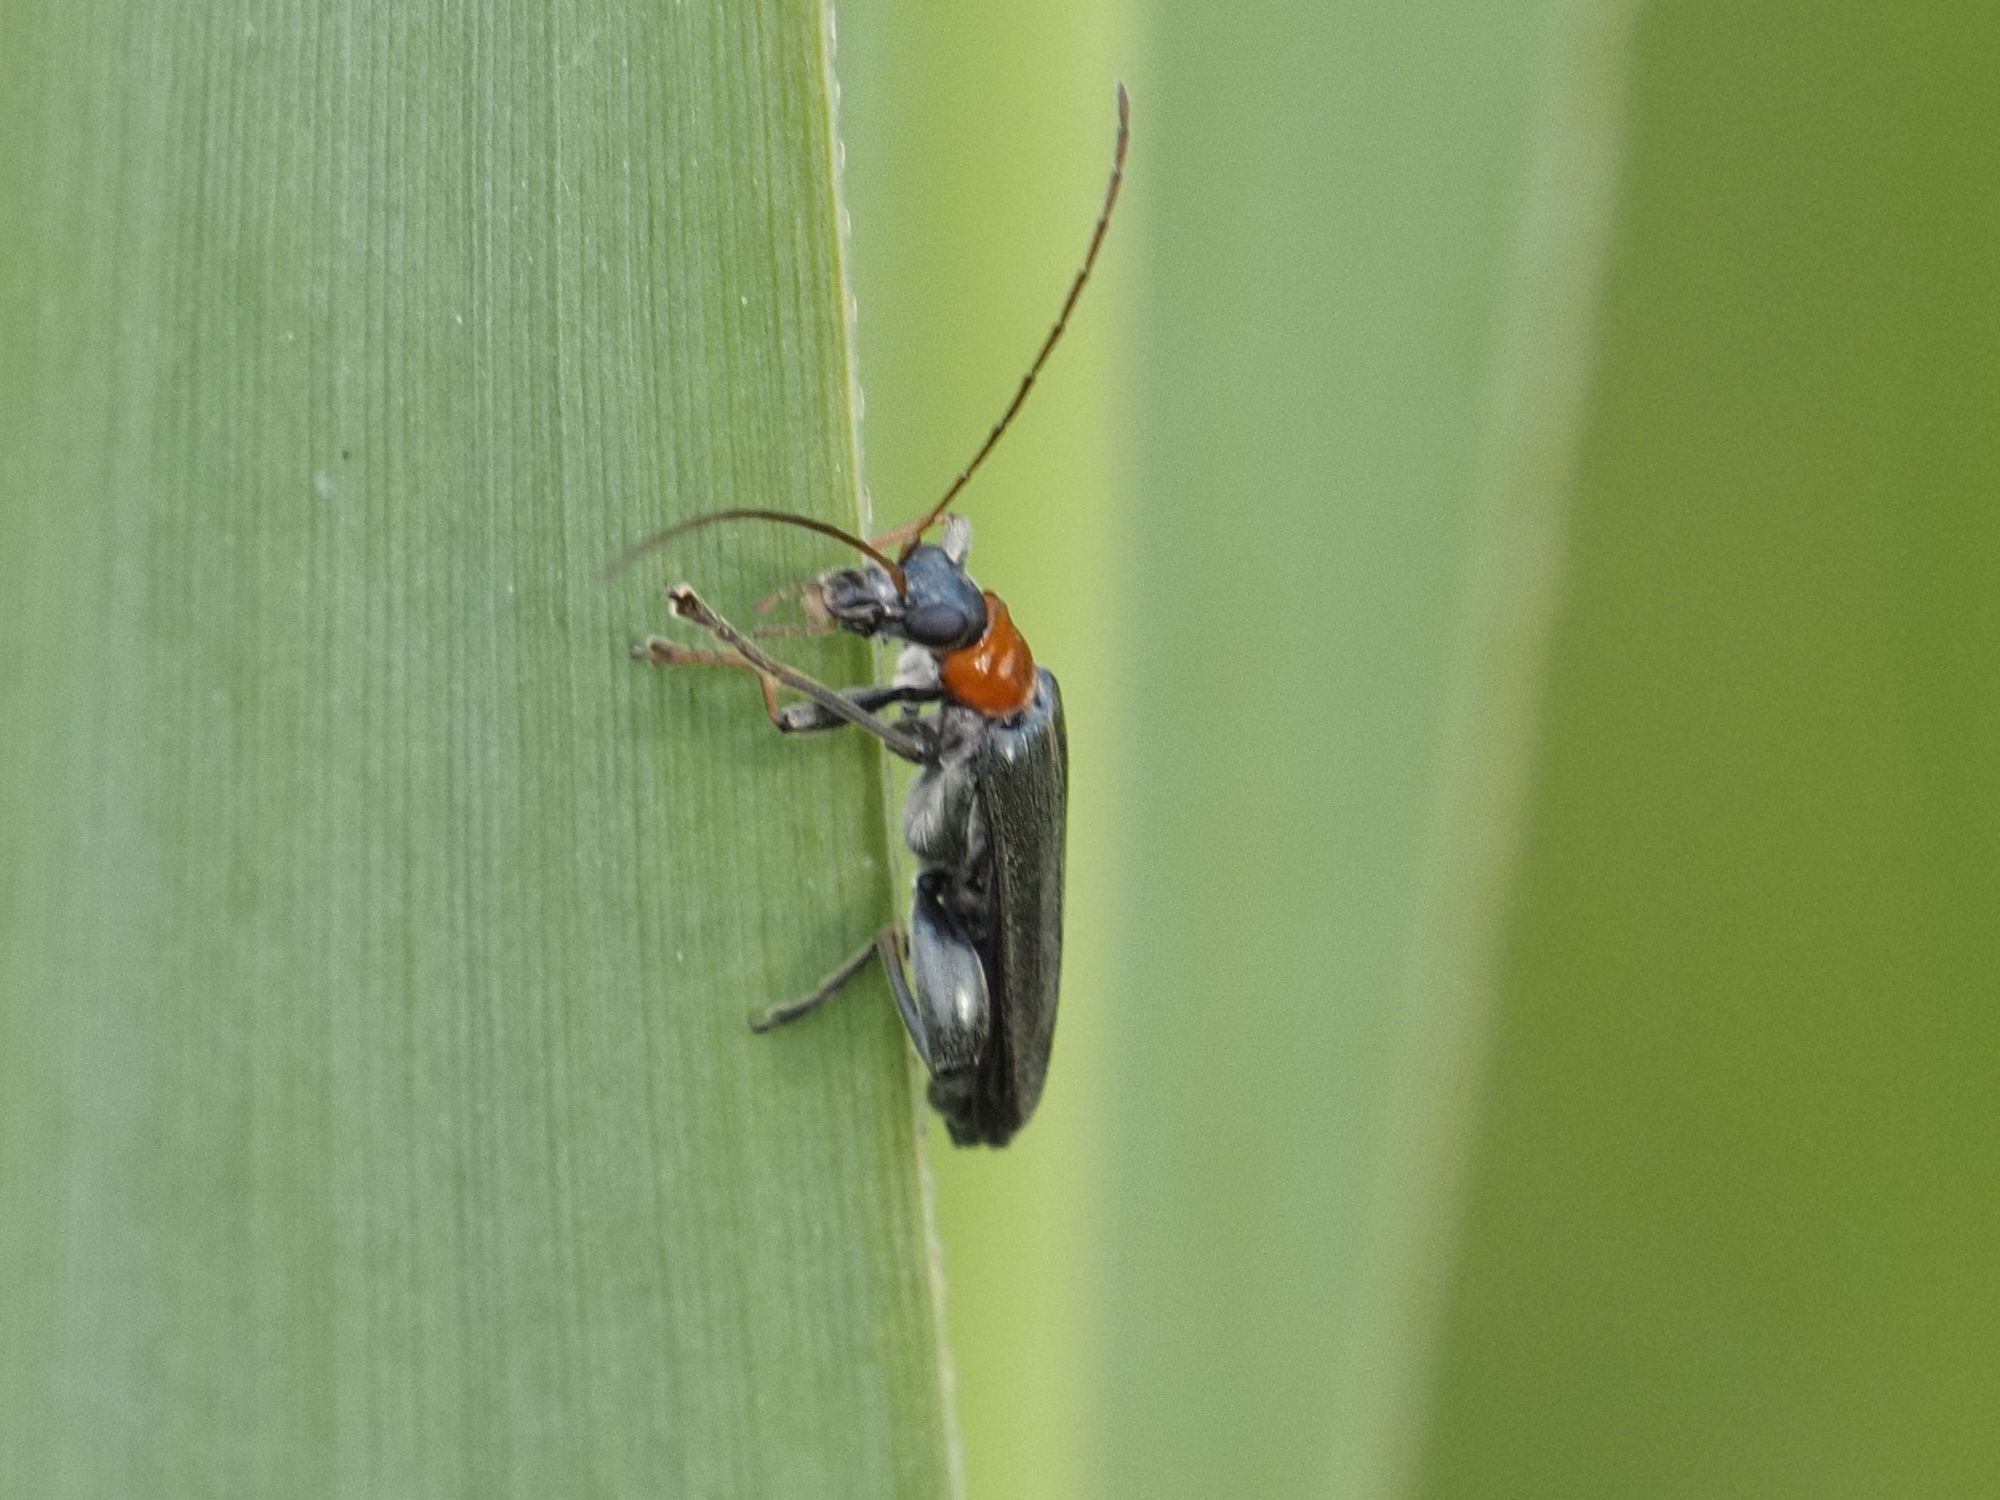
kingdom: Animalia
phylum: Arthropoda
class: Insecta
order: Coleoptera
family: Oedemeridae
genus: Oedemera
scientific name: Oedemera croceicollis
